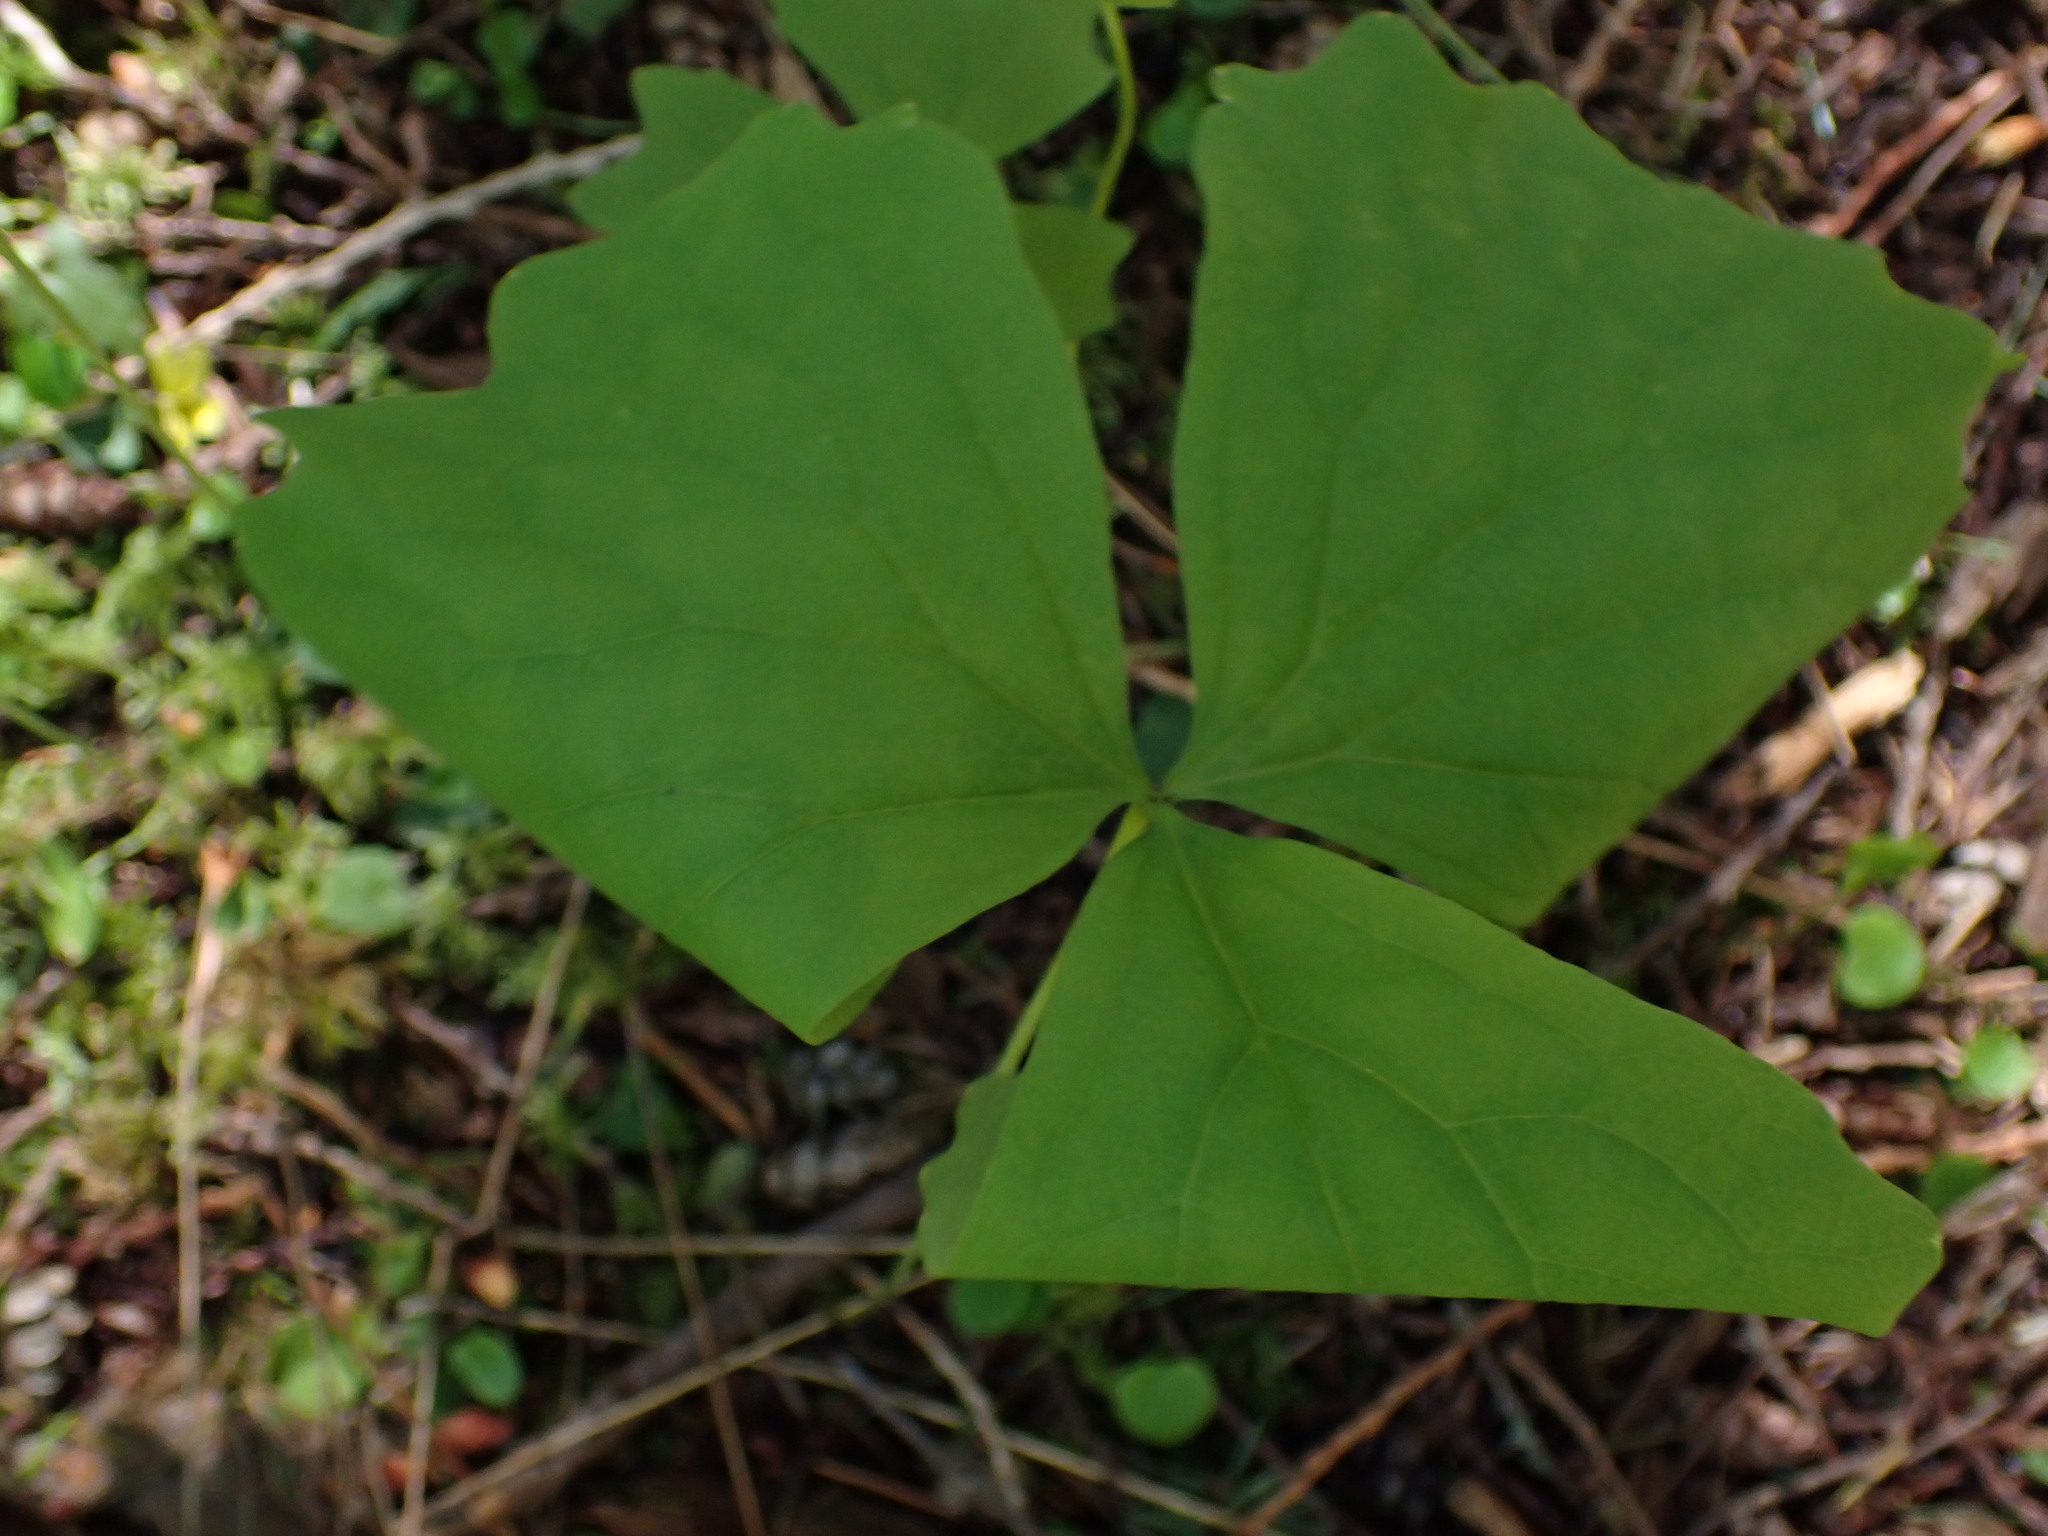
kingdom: Plantae
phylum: Tracheophyta
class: Magnoliopsida
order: Ranunculales
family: Berberidaceae
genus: Achlys
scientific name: Achlys triphylla
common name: Vanilla-leaf
